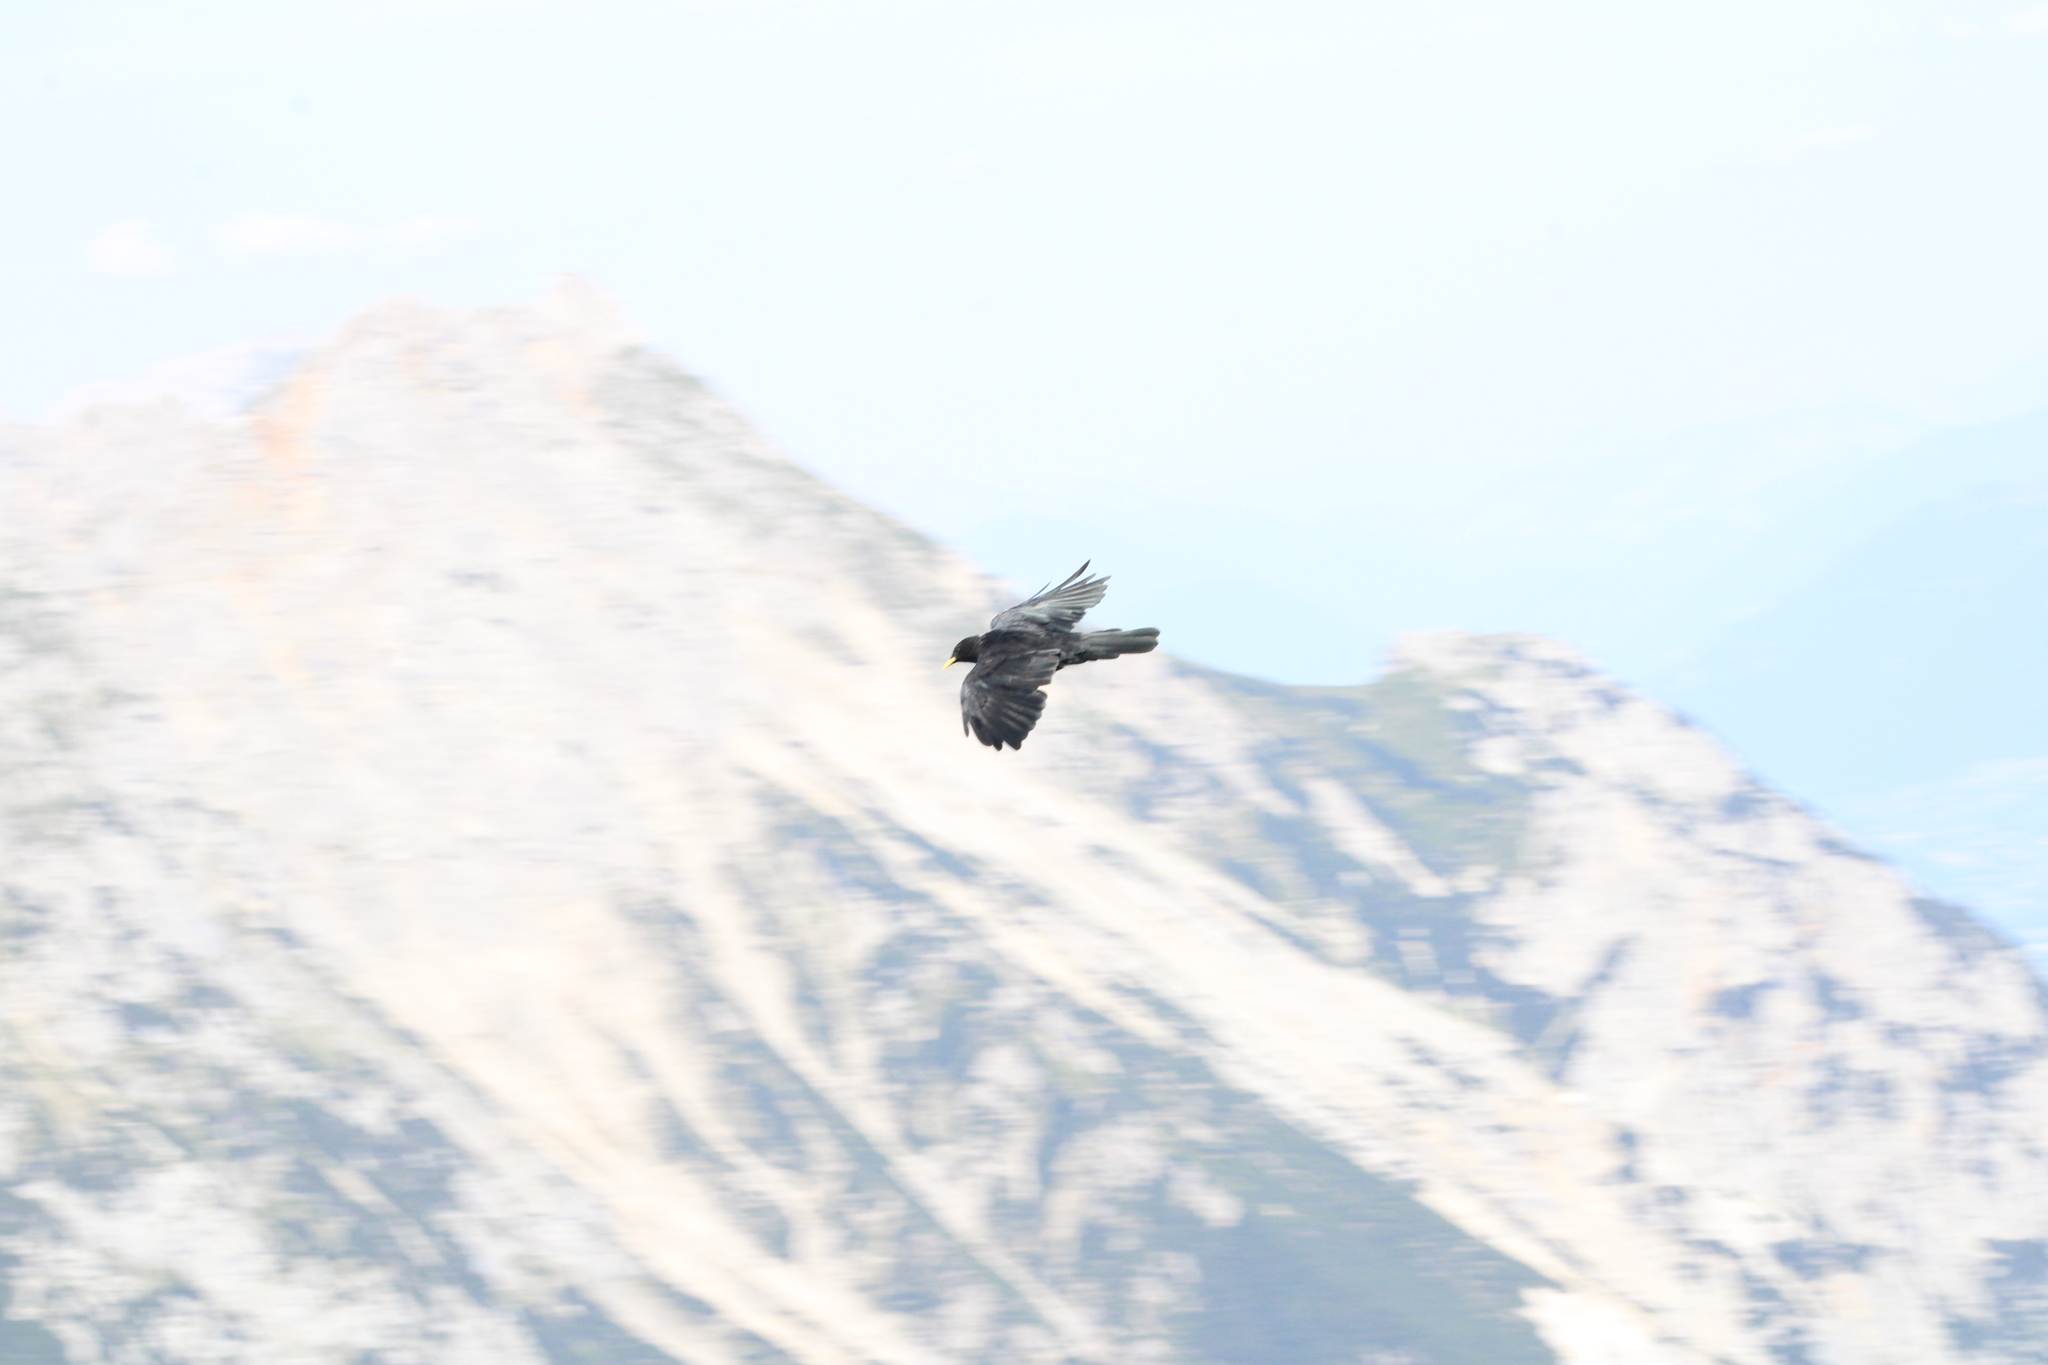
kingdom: Animalia
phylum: Chordata
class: Aves
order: Passeriformes
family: Corvidae
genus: Pyrrhocorax
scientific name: Pyrrhocorax graculus
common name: Alpine chough
